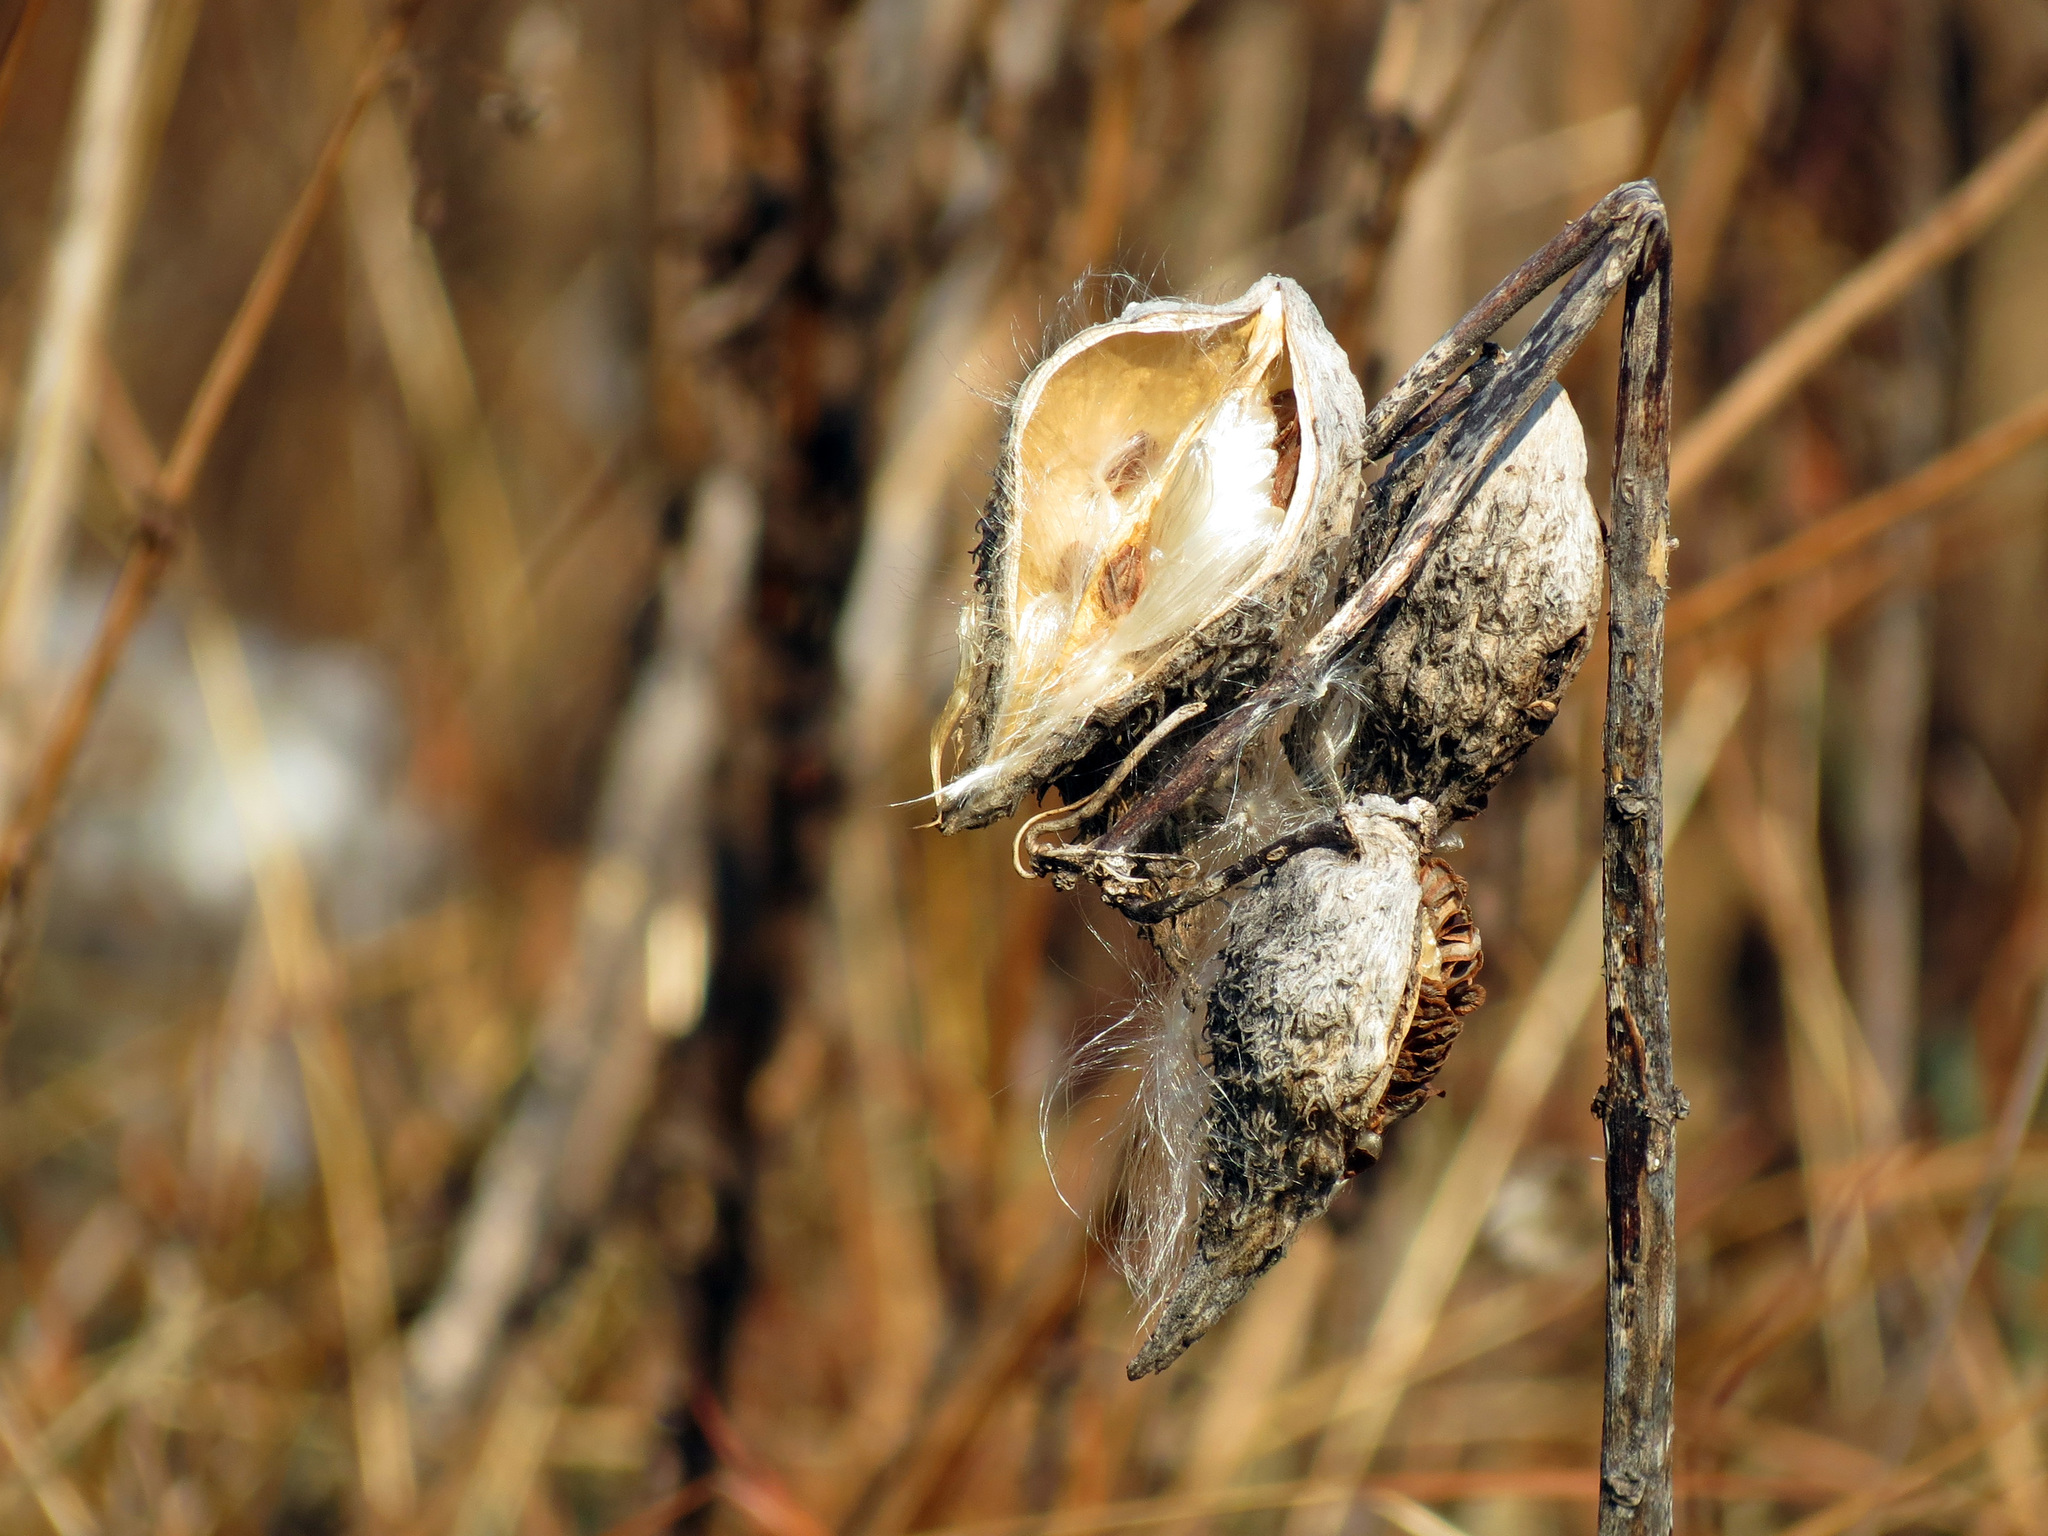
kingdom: Plantae
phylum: Tracheophyta
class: Magnoliopsida
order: Gentianales
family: Apocynaceae
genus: Asclepias
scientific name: Asclepias syriaca
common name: Common milkweed
